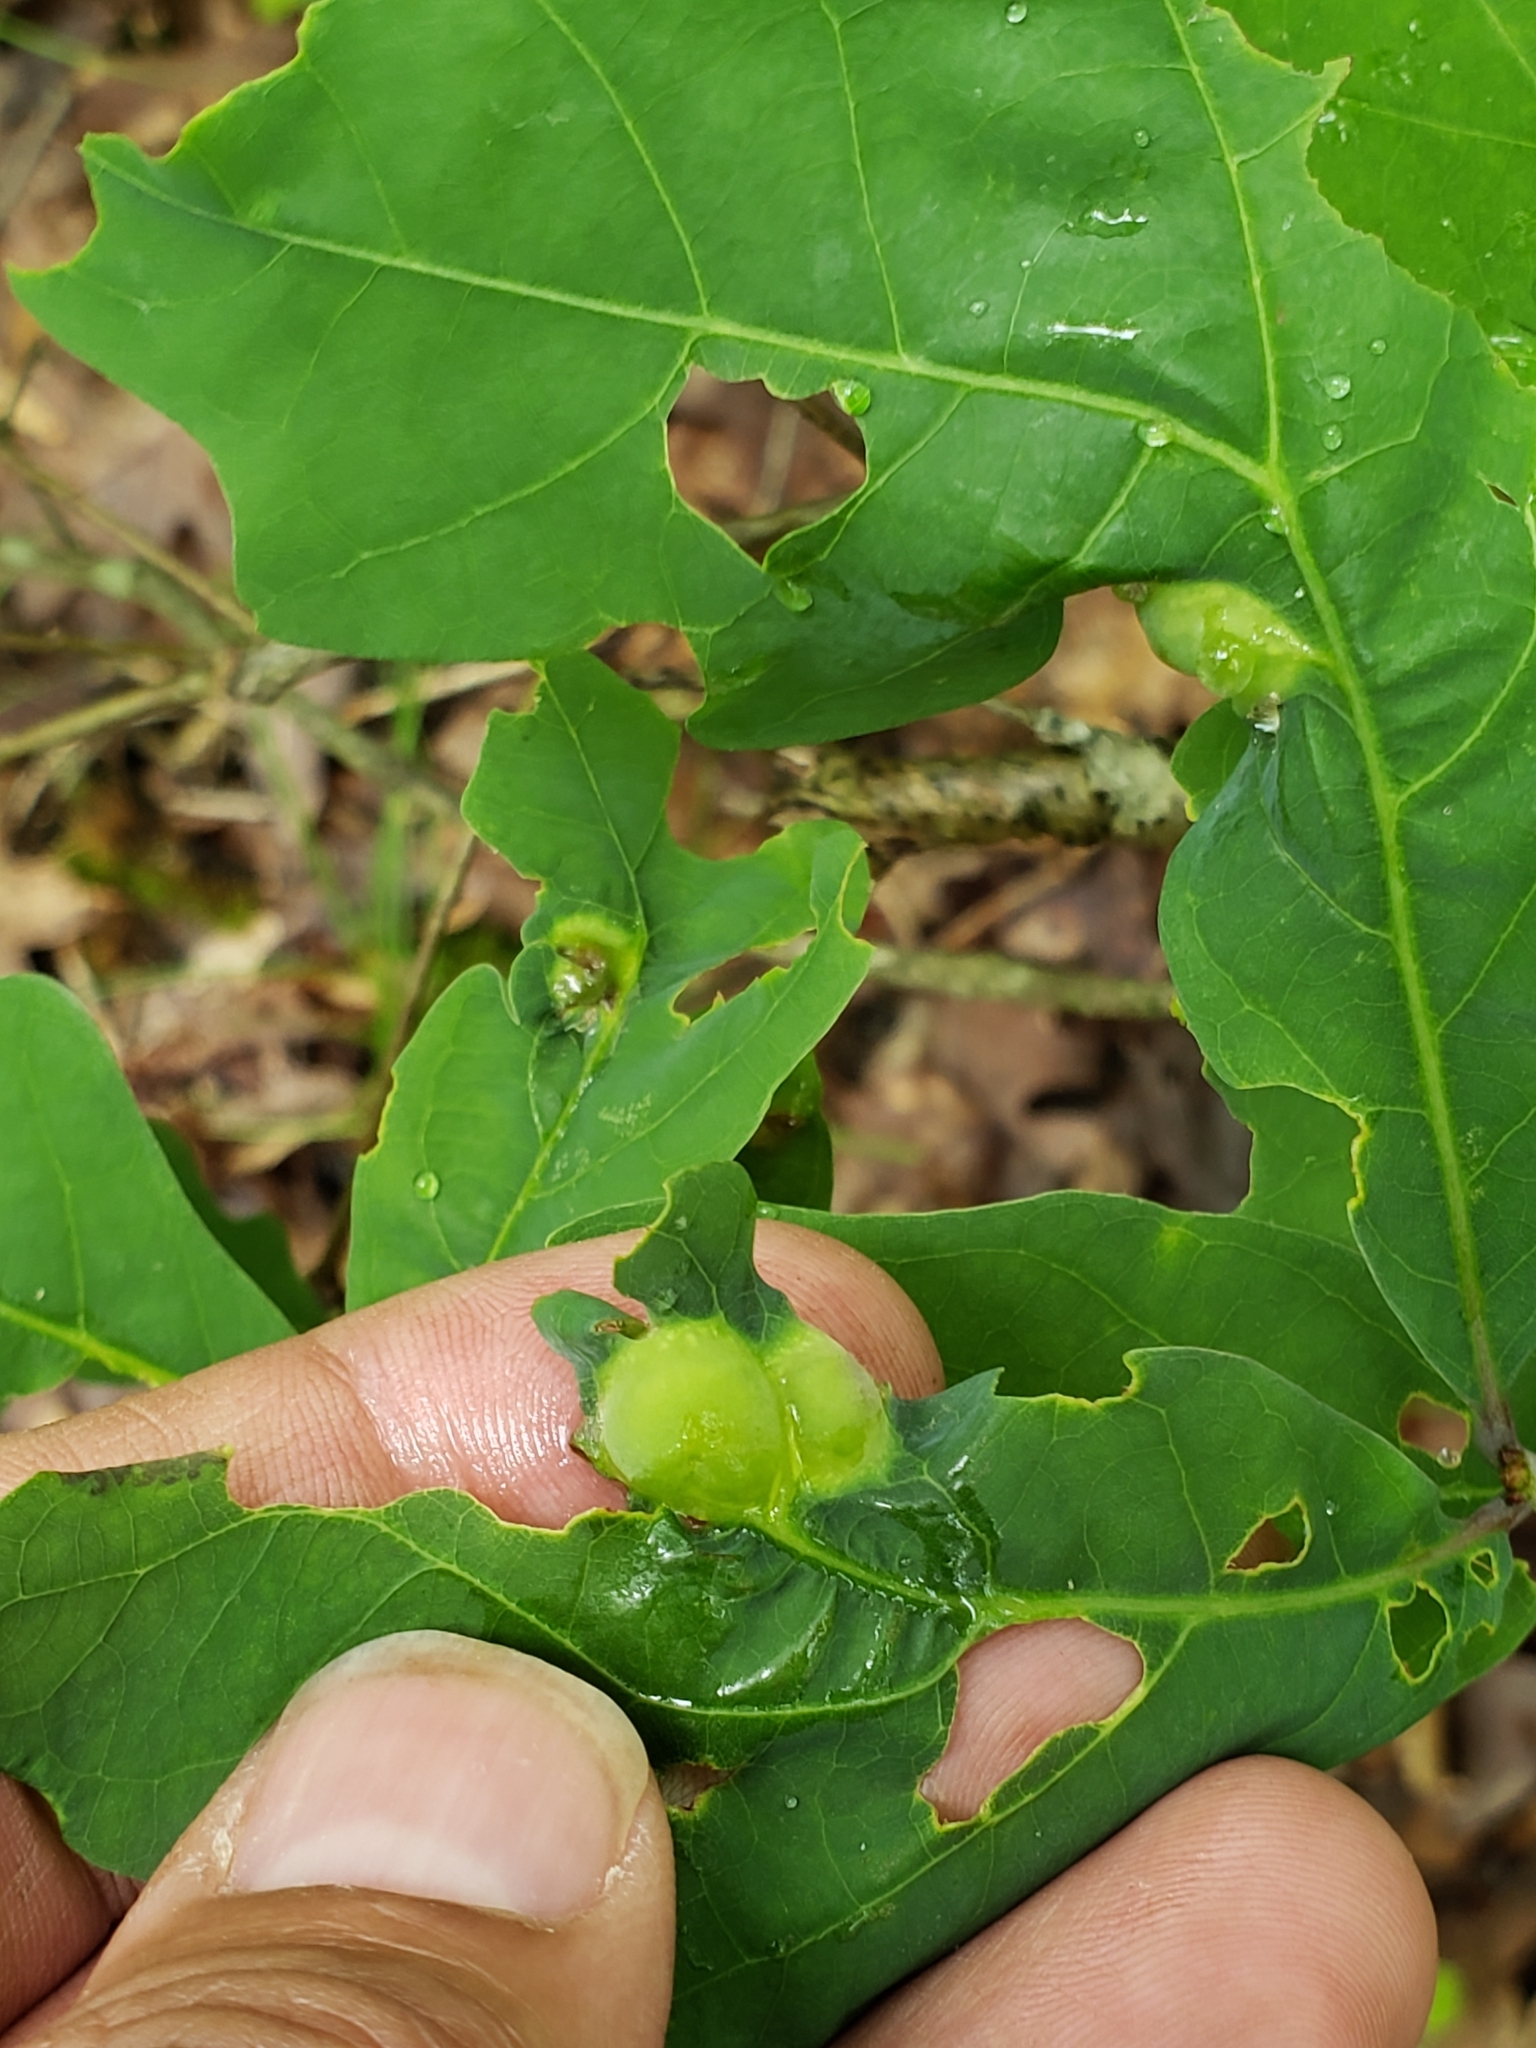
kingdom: Animalia
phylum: Arthropoda
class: Insecta
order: Hymenoptera
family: Cynipidae
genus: Callirhytis
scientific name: Callirhytis
